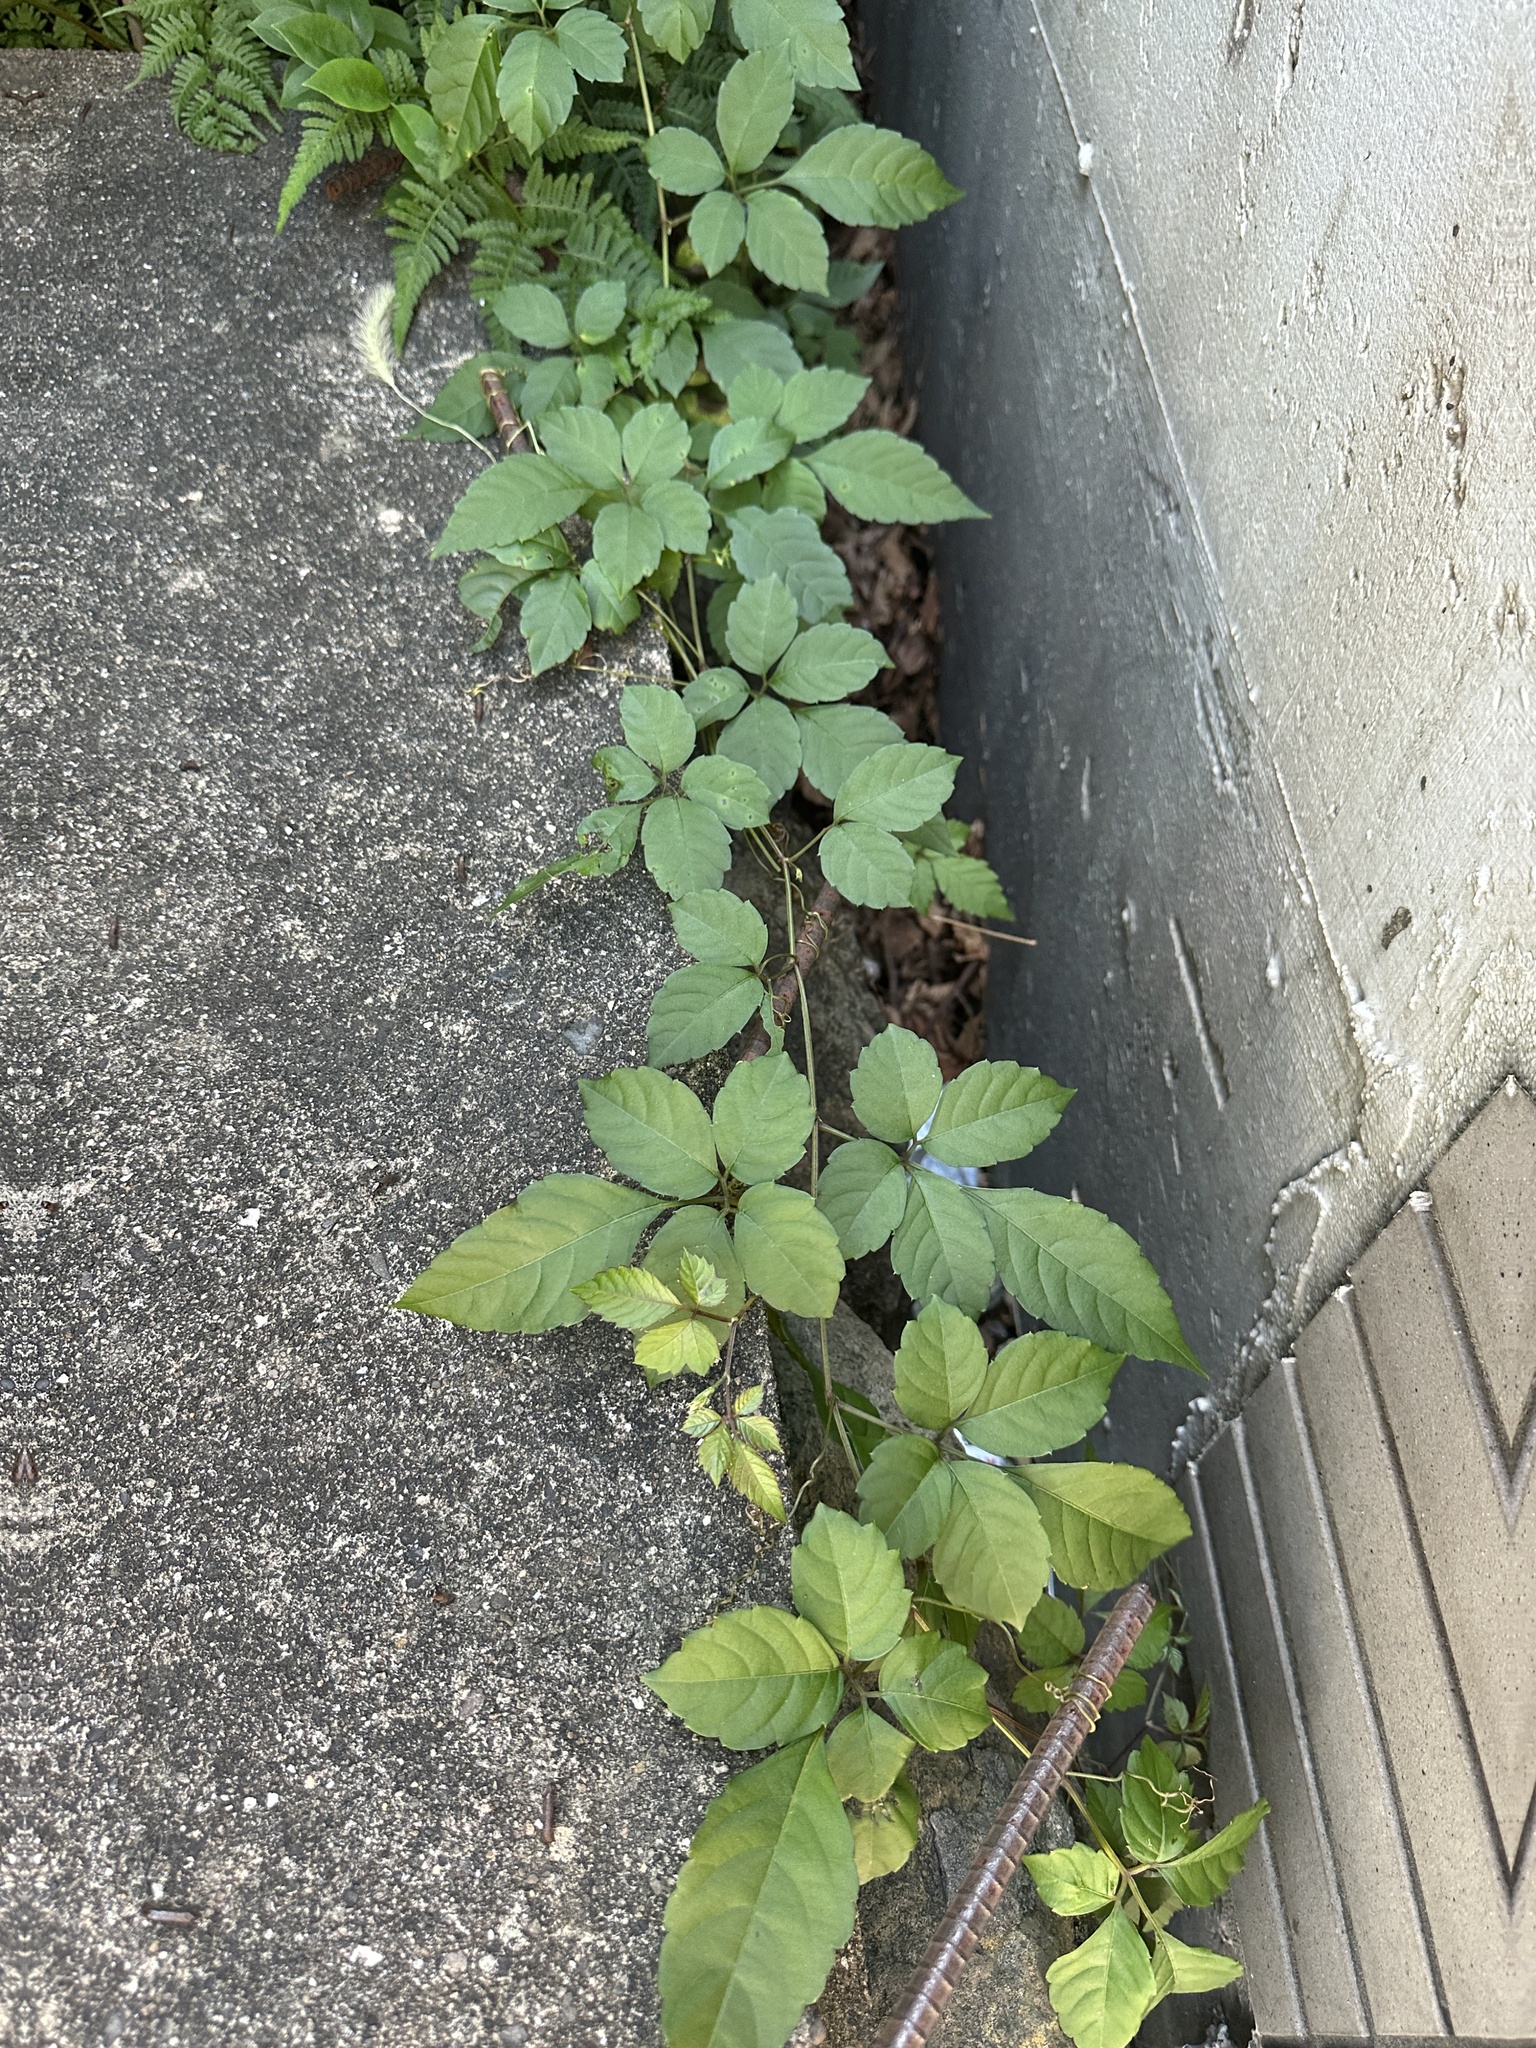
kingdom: Plantae
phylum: Tracheophyta
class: Magnoliopsida
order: Vitales
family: Vitaceae
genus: Causonis
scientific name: Causonis japonica
